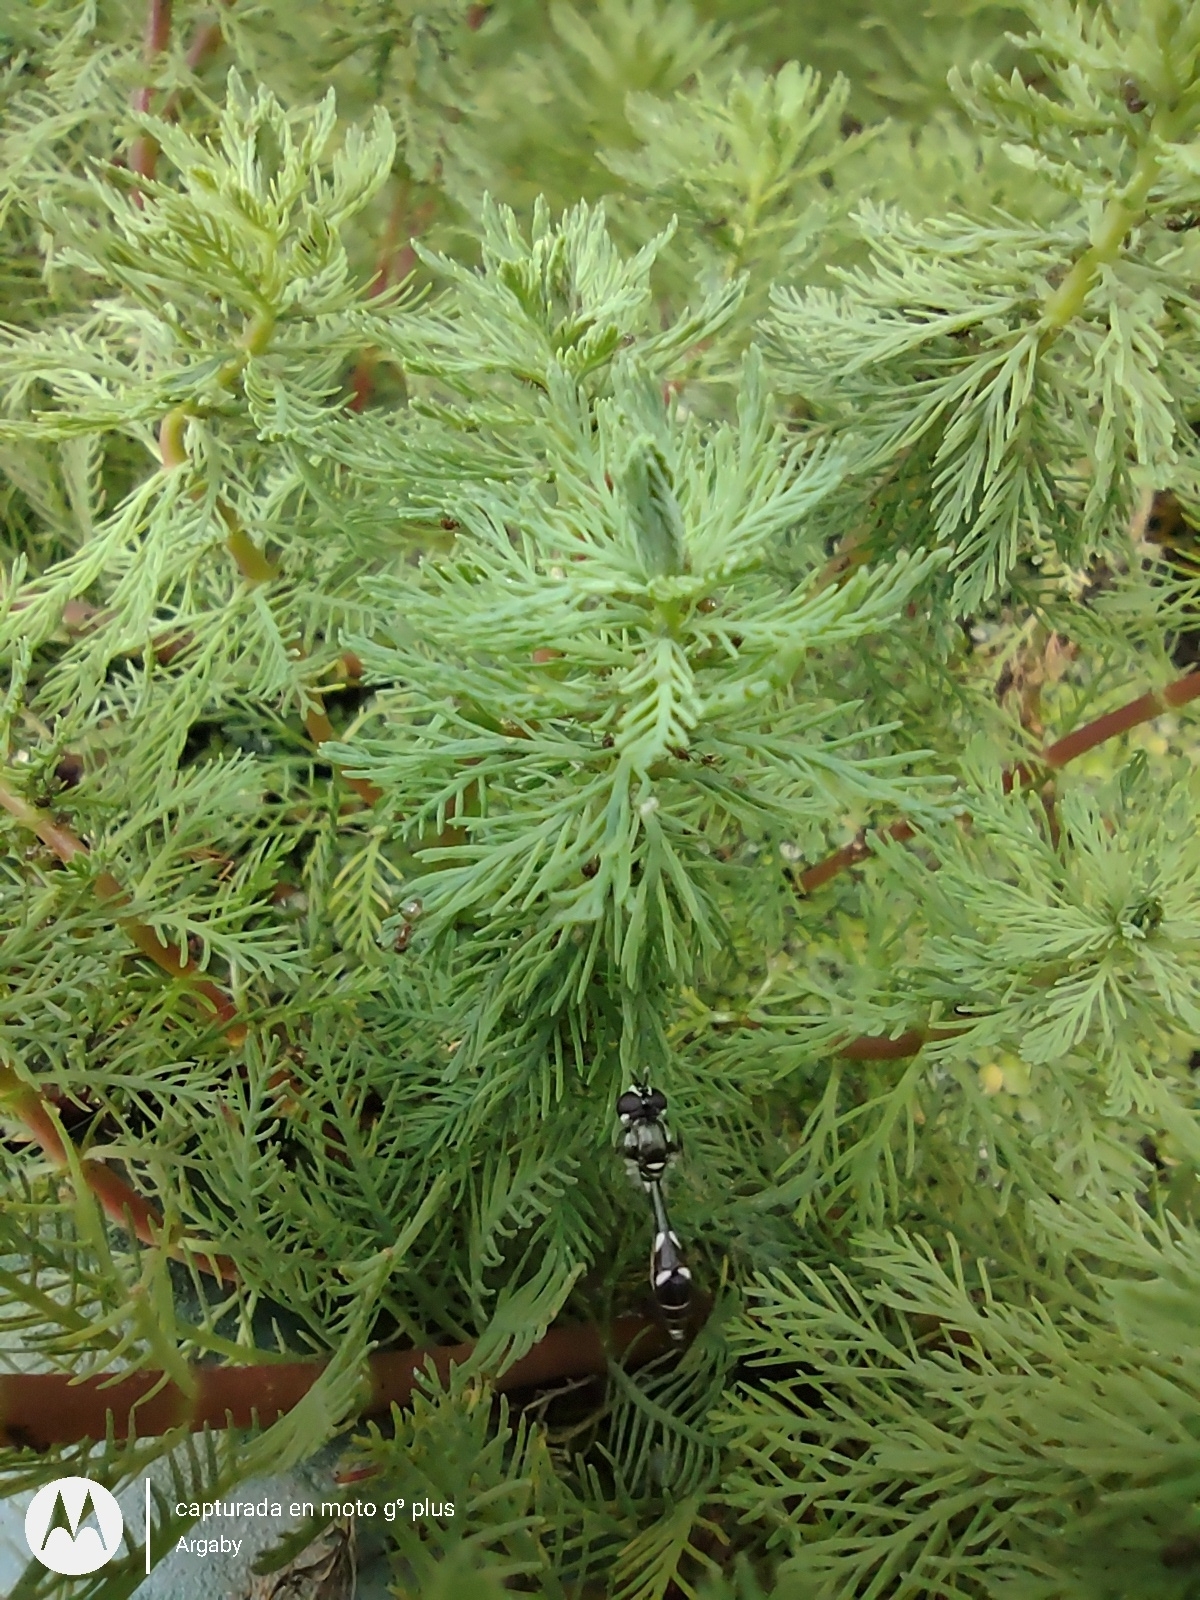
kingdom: Animalia
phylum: Arthropoda
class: Insecta
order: Diptera
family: Syrphidae
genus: Dioprosopa
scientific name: Dioprosopa clavatus
